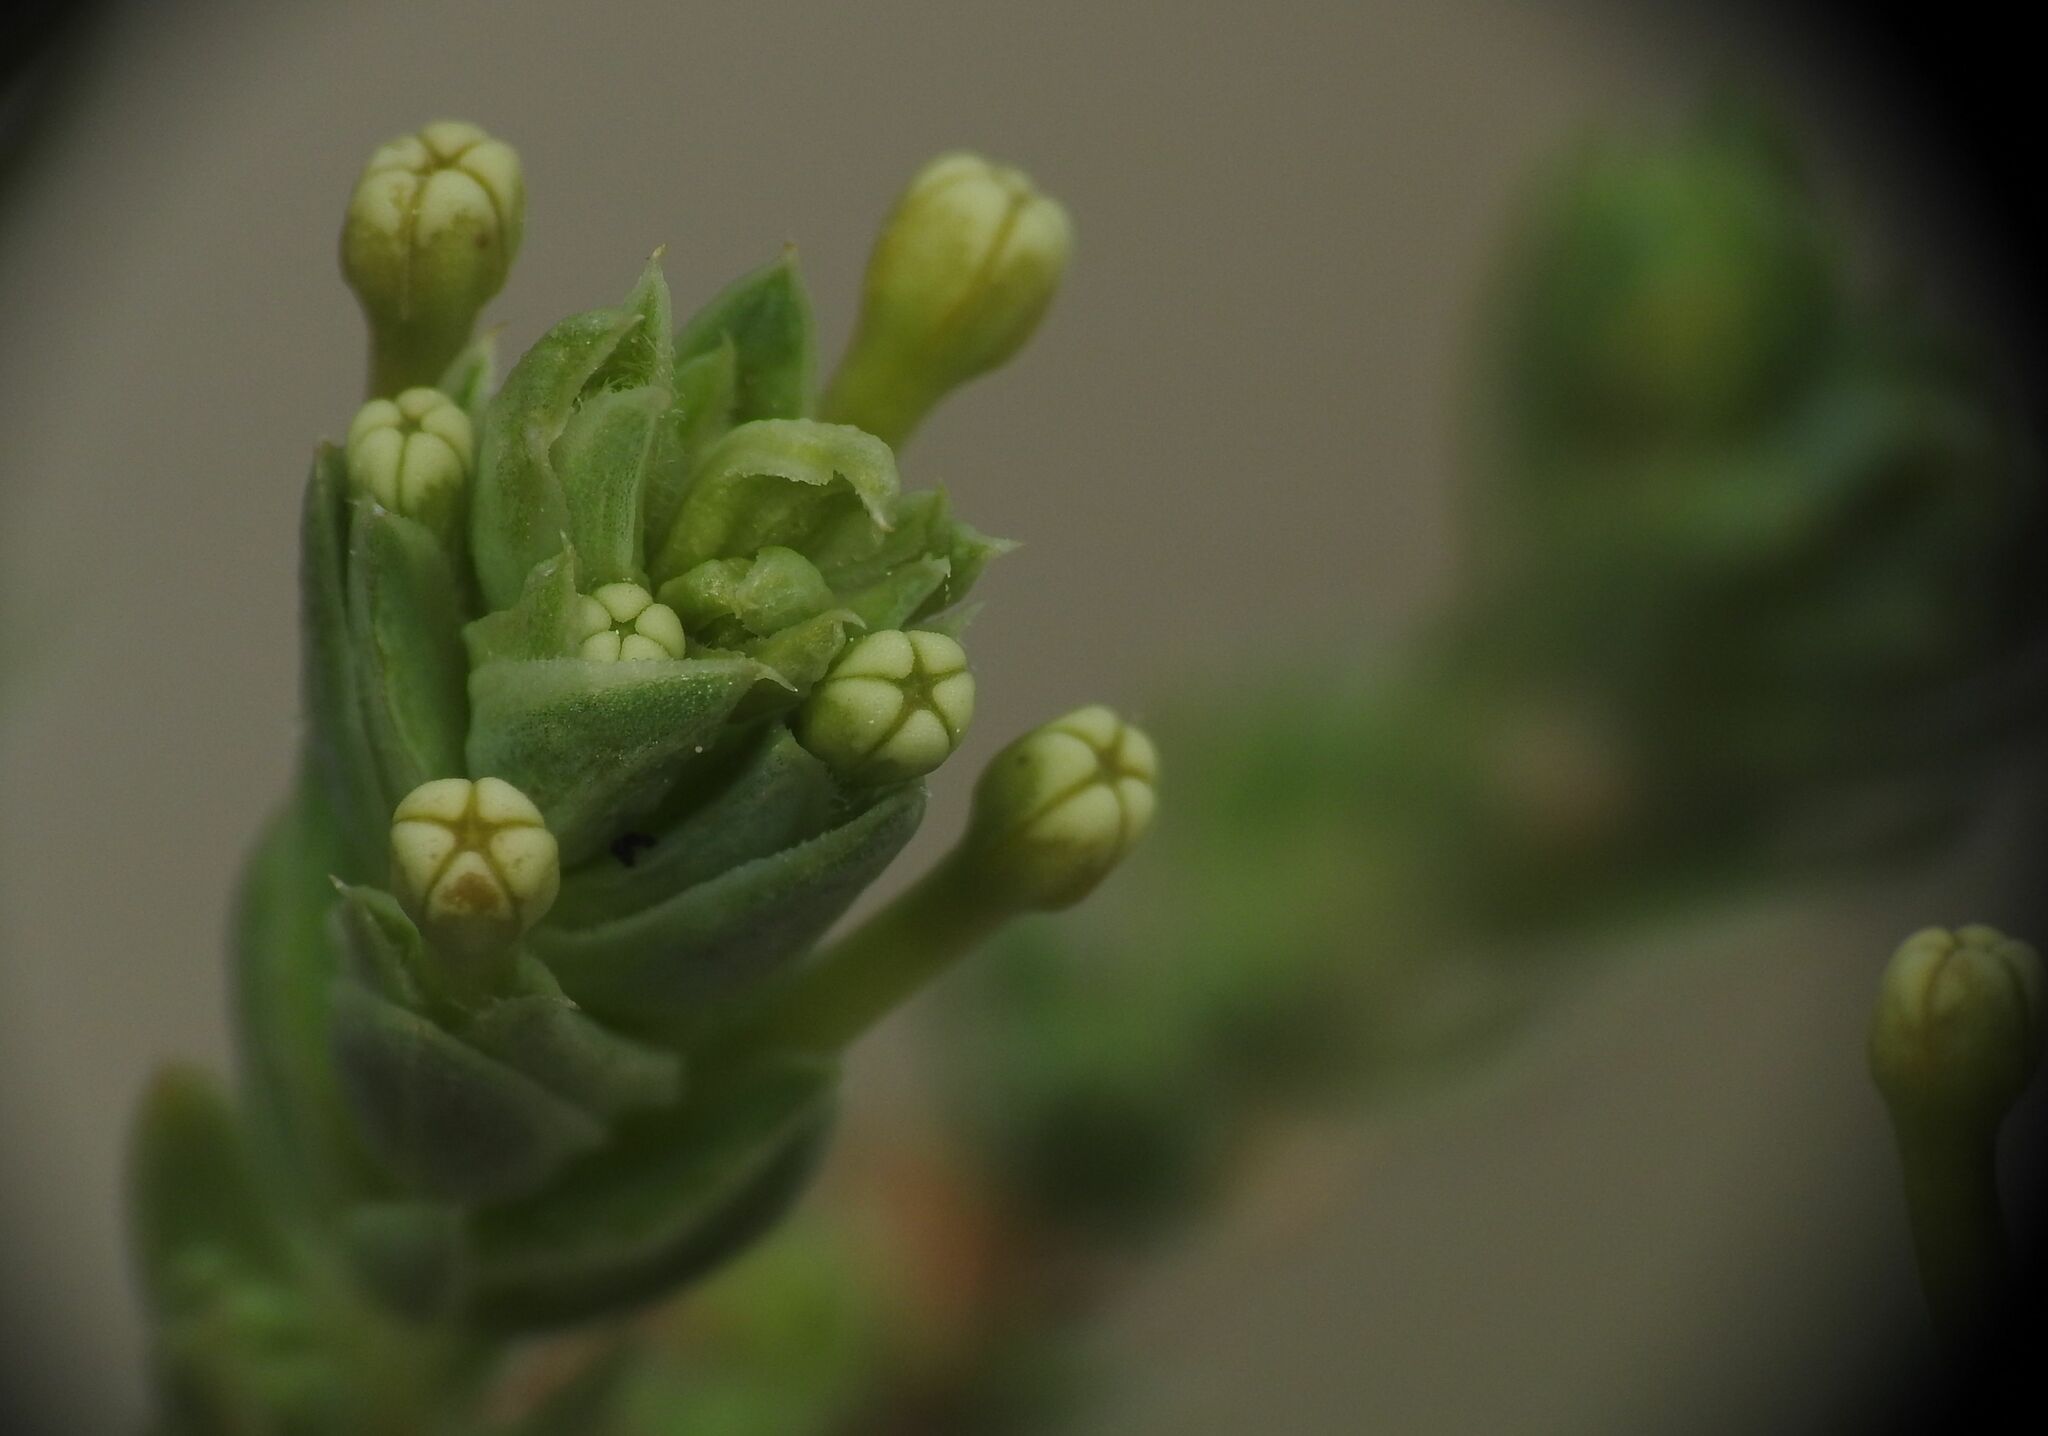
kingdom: Plantae
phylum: Tracheophyta
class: Magnoliopsida
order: Gentianales
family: Rubiaceae
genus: Crucianella
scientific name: Crucianella maritima
